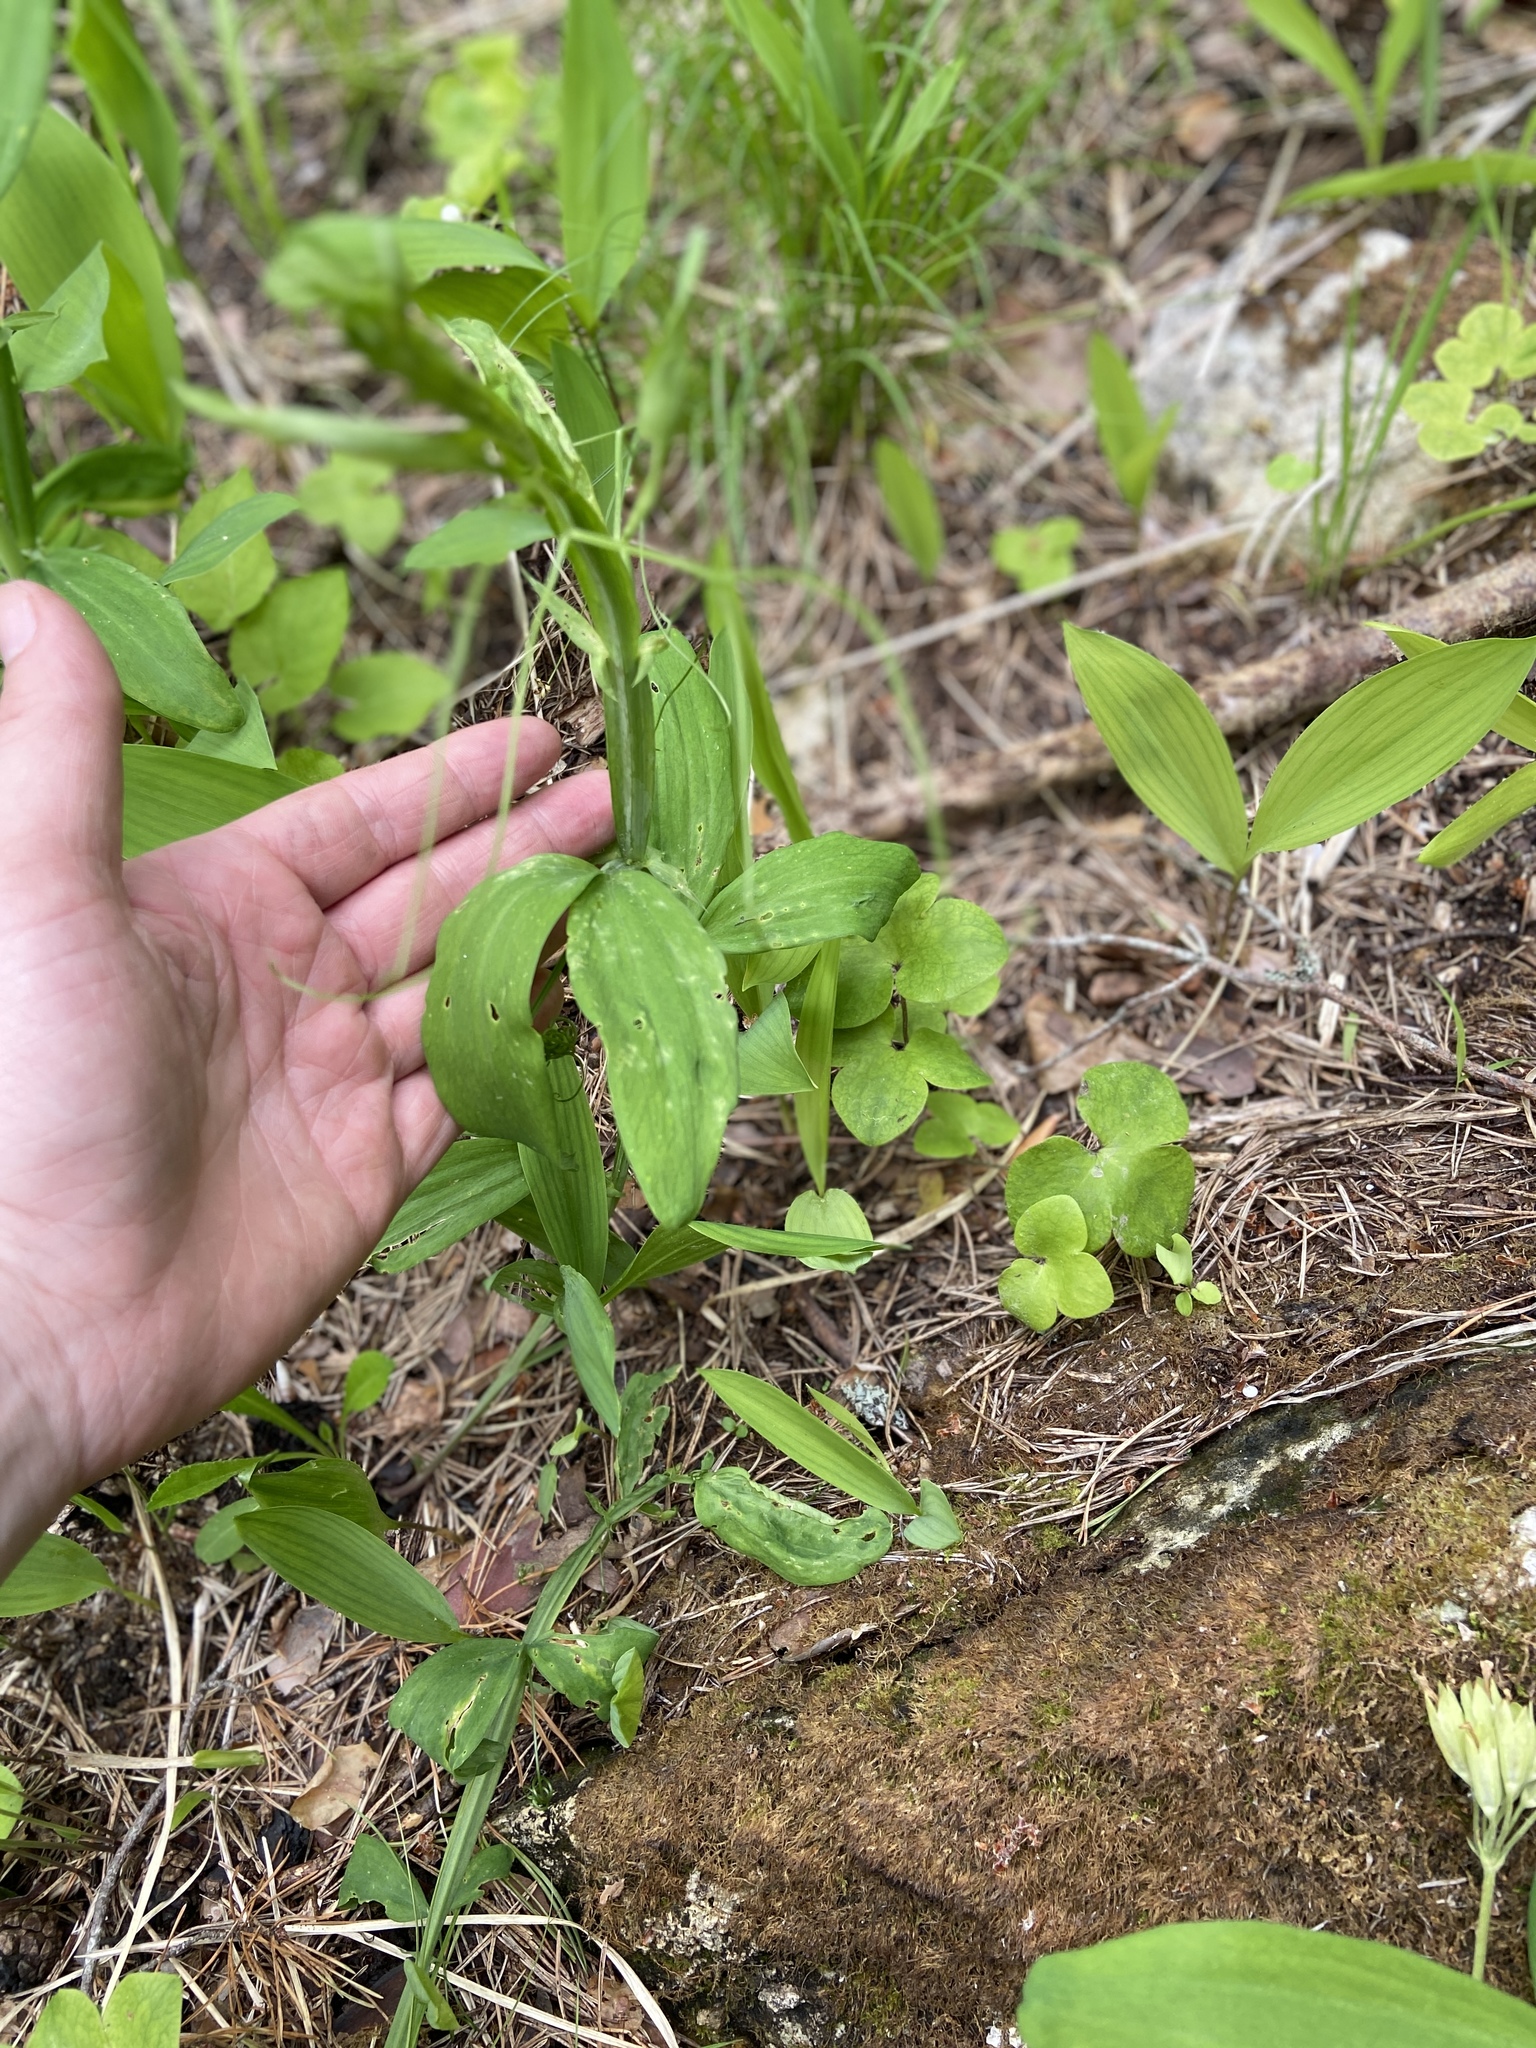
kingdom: Plantae
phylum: Tracheophyta
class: Magnoliopsida
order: Fabales
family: Fabaceae
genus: Lathyrus
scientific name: Lathyrus sylvestris
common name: Flat pea
